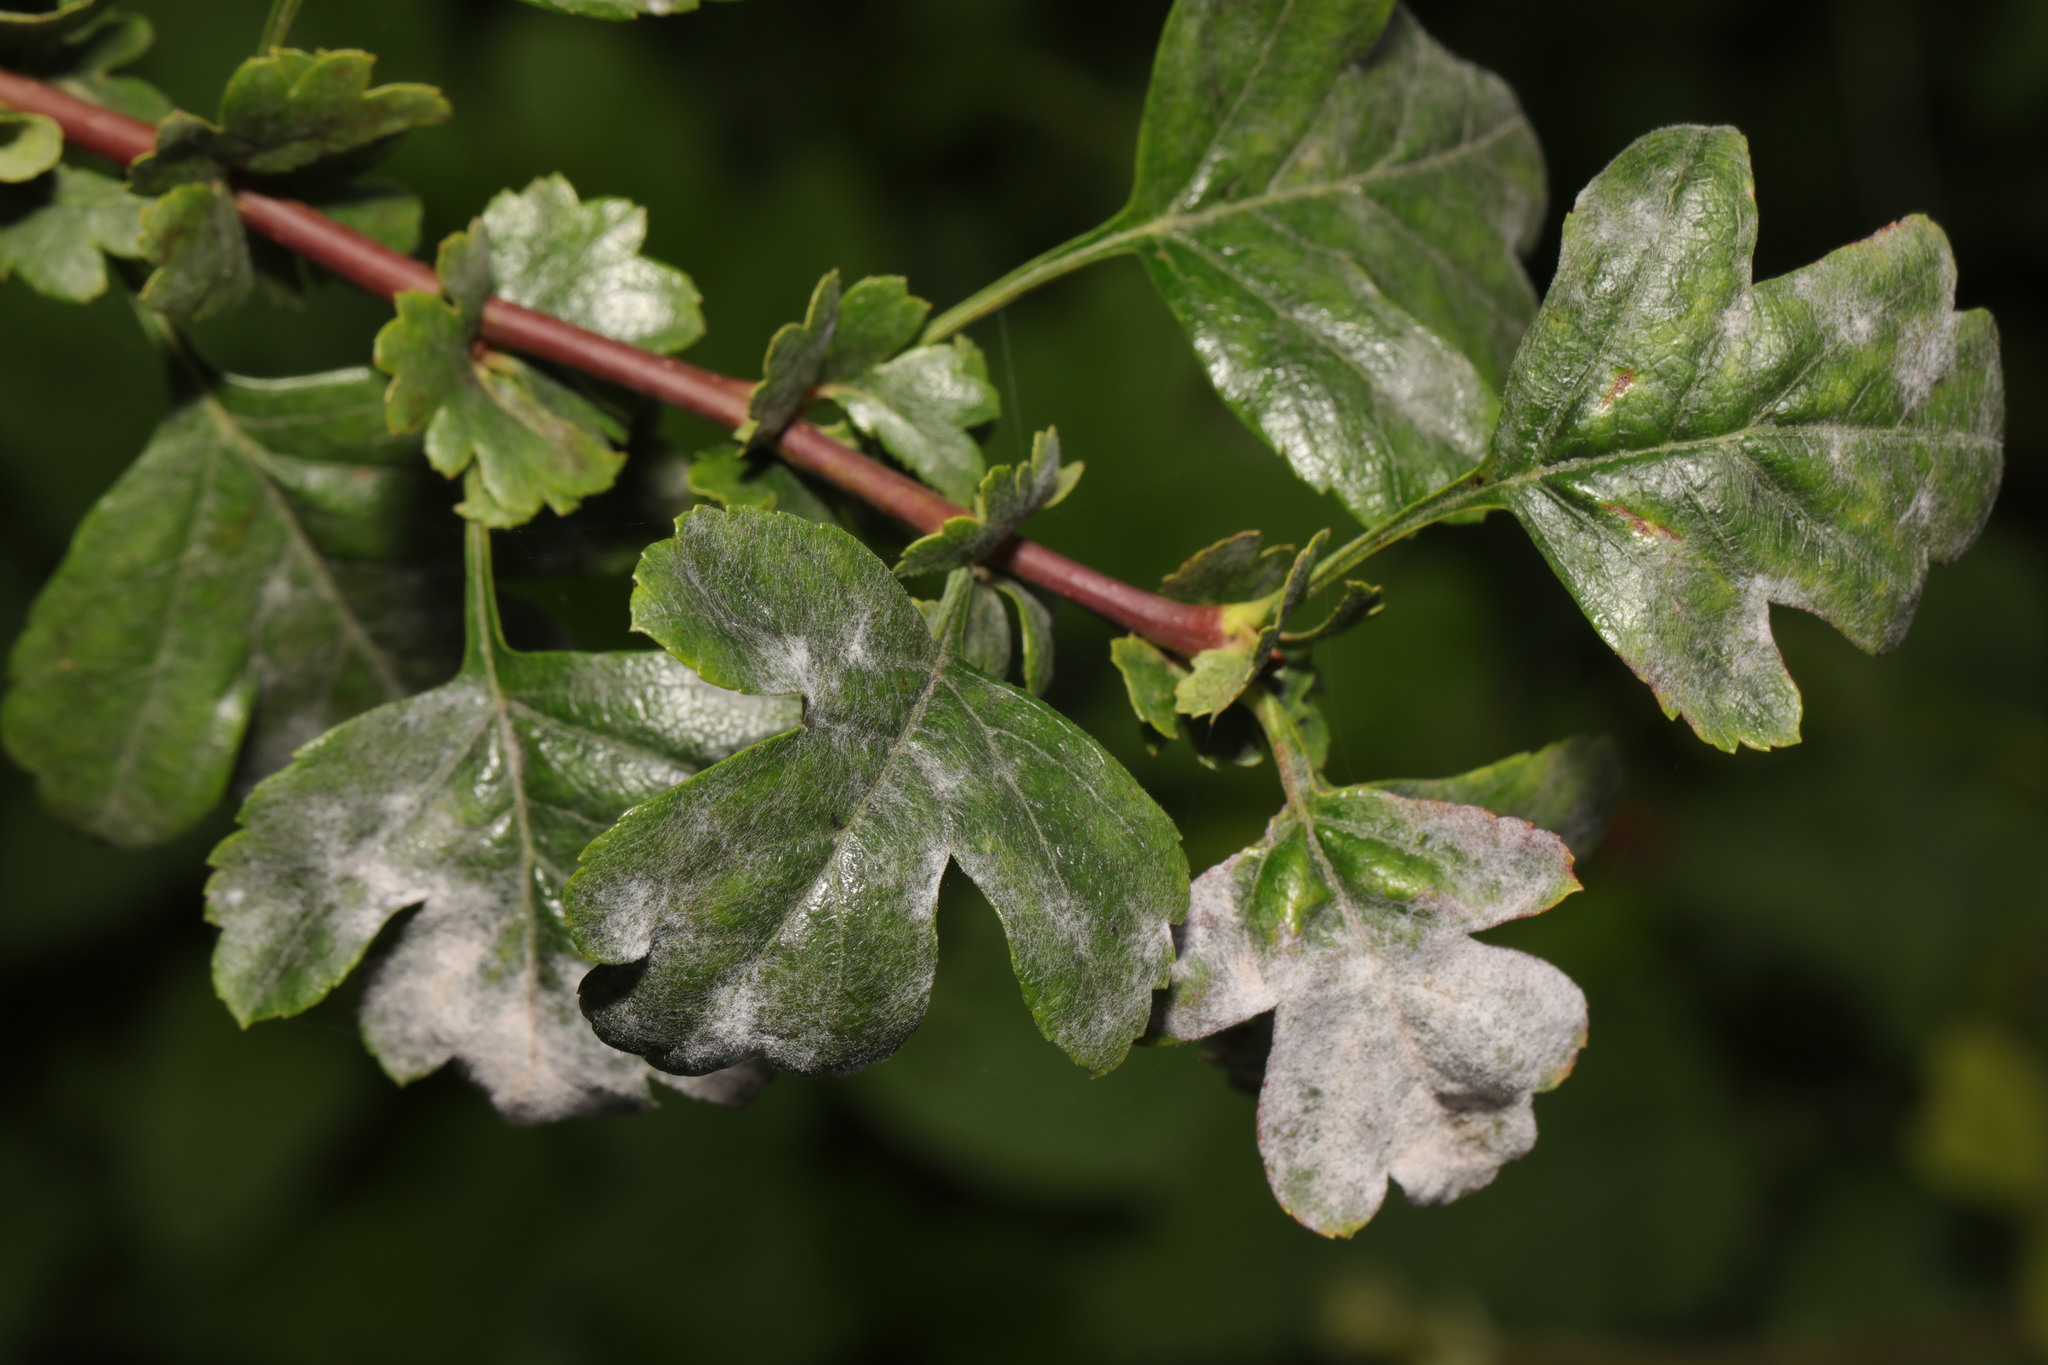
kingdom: Plantae
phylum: Tracheophyta
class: Magnoliopsida
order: Rosales
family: Rosaceae
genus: Crataegus
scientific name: Crataegus monogyna
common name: Hawthorn
